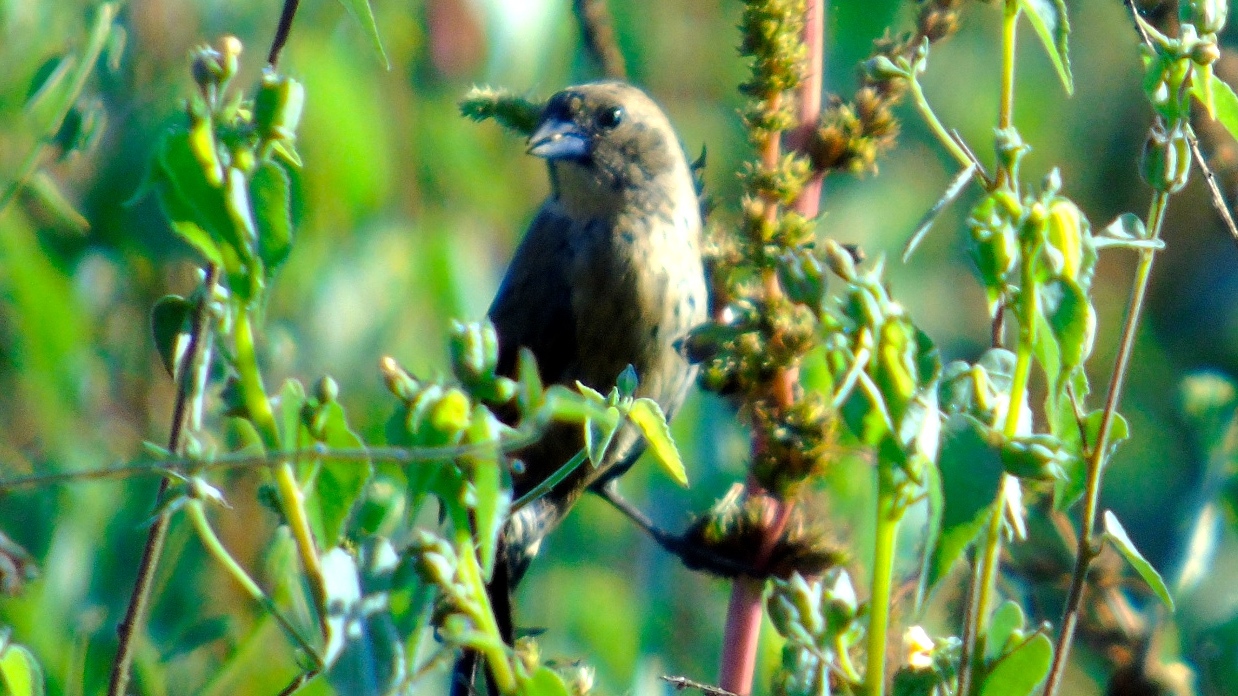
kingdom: Animalia
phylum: Chordata
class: Aves
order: Passeriformes
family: Thraupidae
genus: Volatinia
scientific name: Volatinia jacarina
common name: Blue-black grassquit
